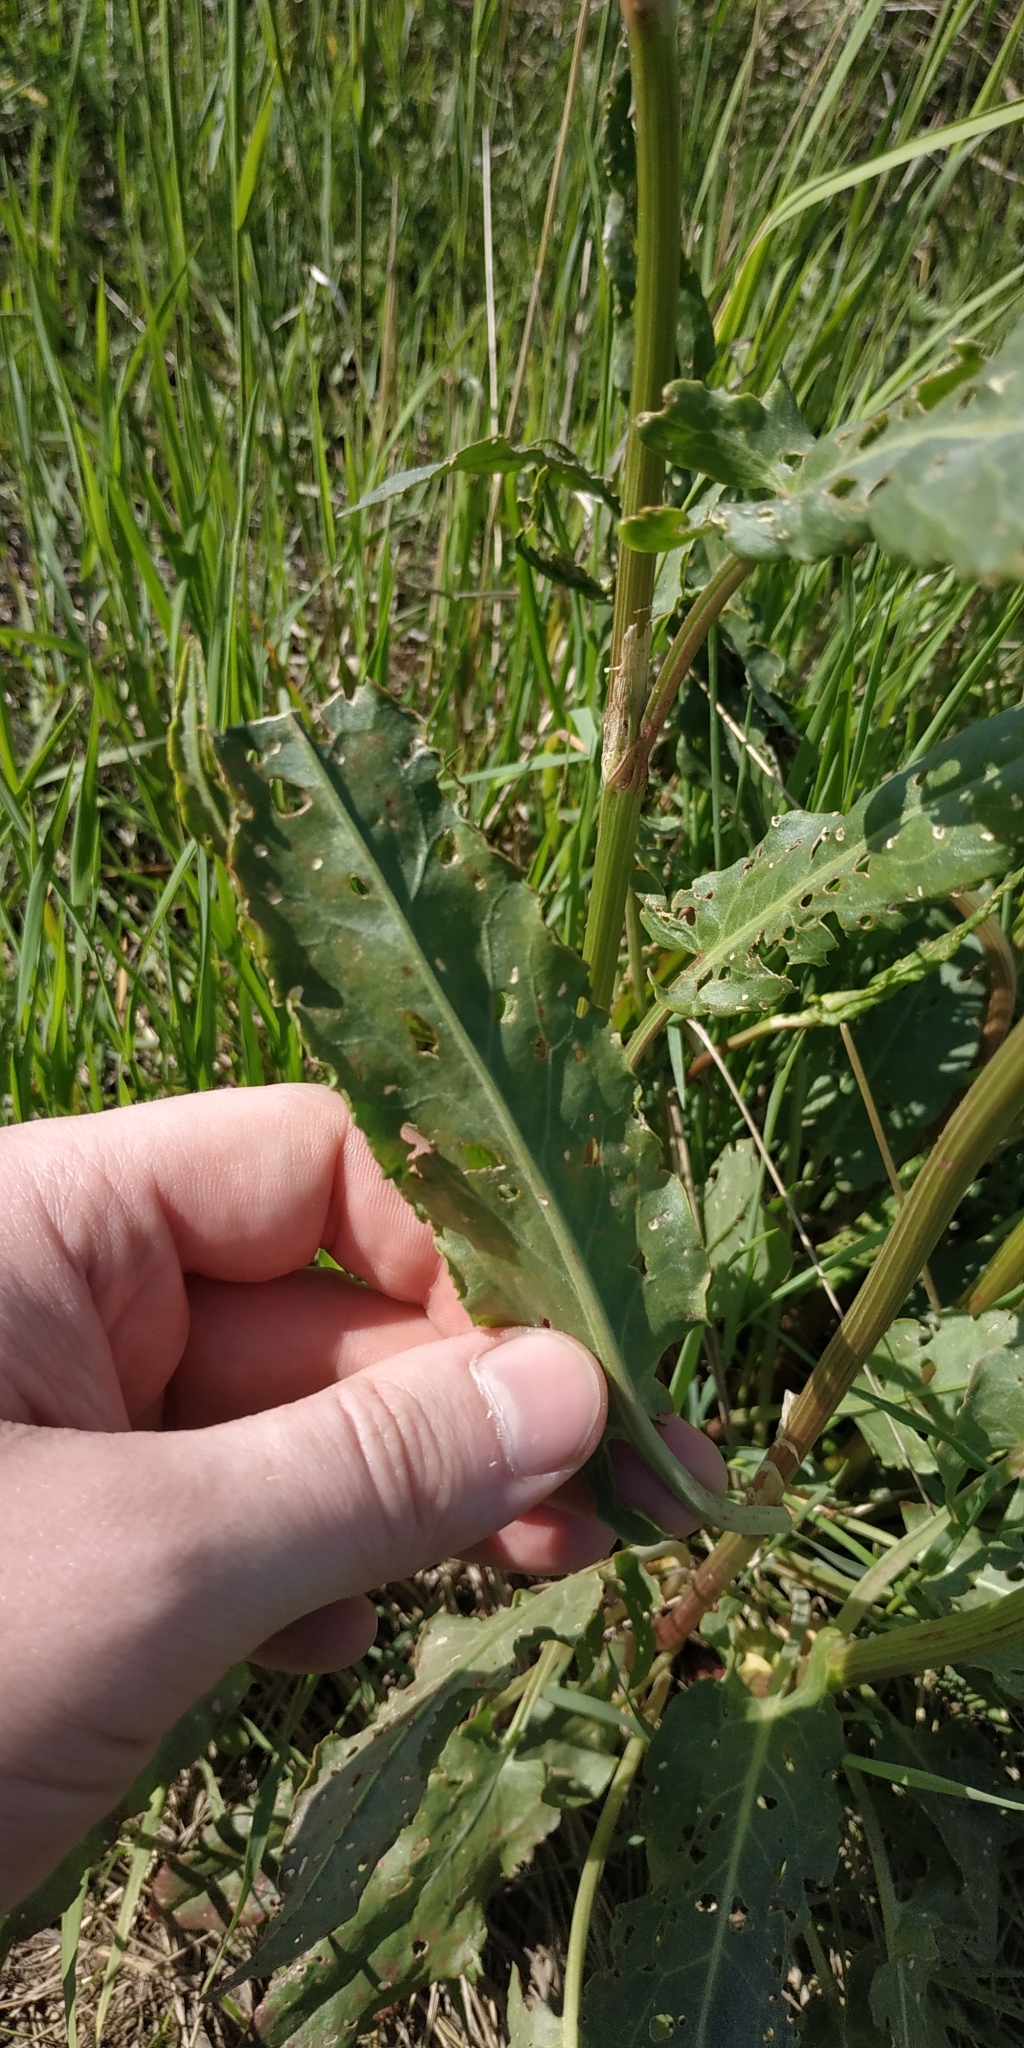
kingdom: Plantae
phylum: Tracheophyta
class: Magnoliopsida
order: Caryophyllales
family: Polygonaceae
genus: Rumex
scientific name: Rumex thyrsiflorus
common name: Garden sorrel
